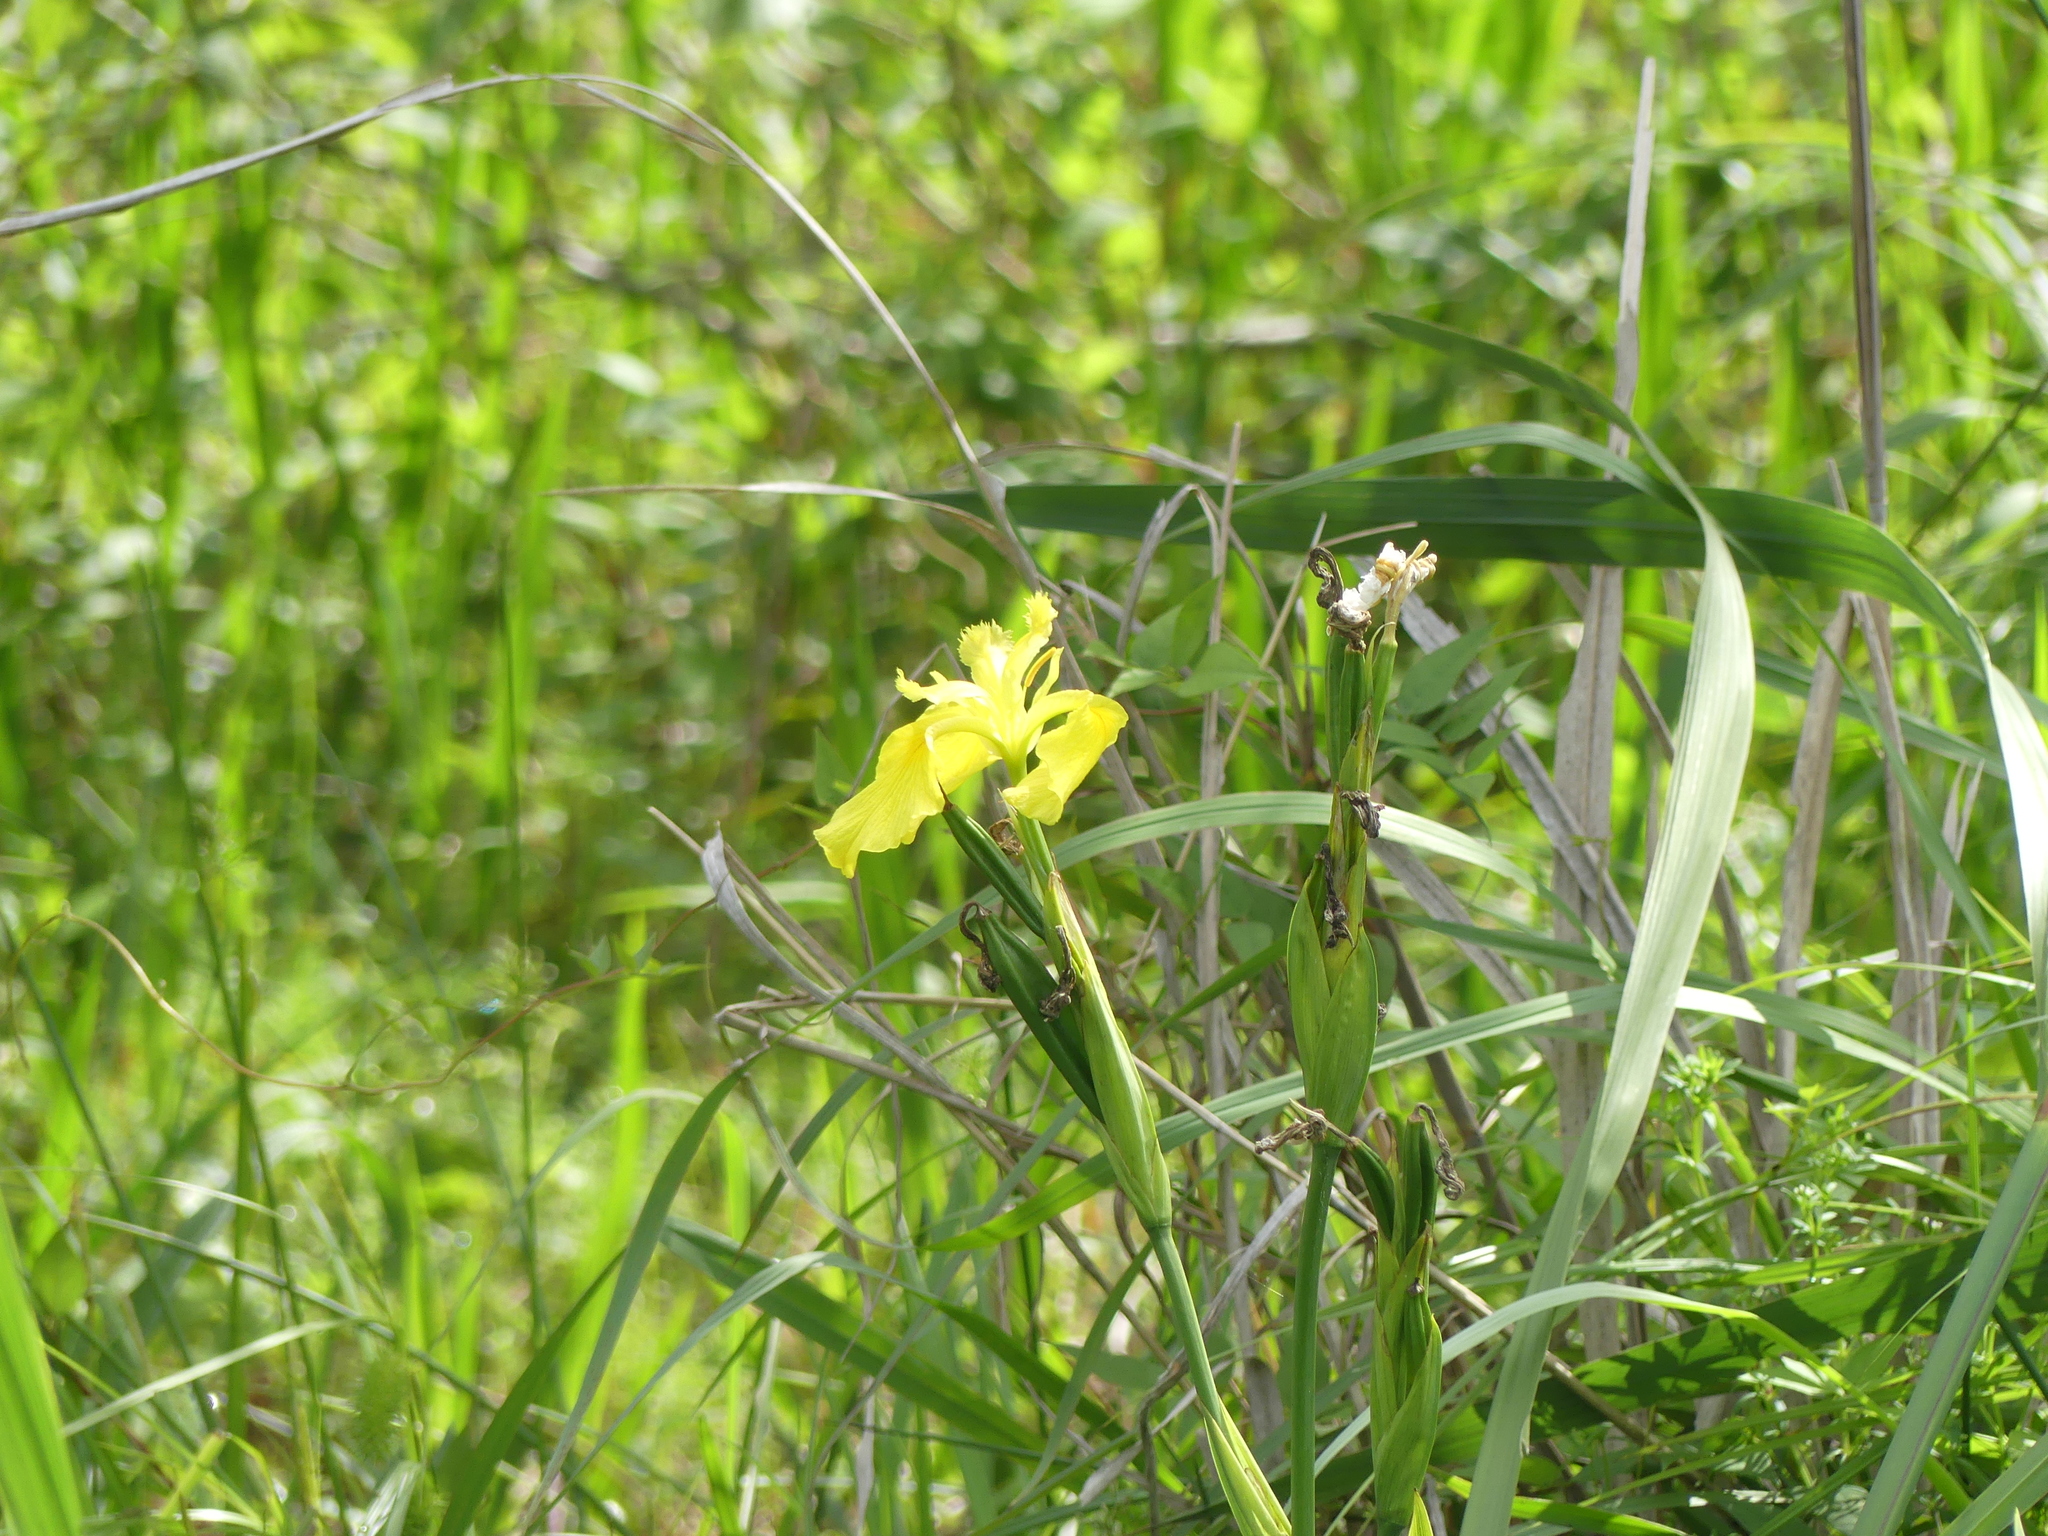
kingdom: Plantae
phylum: Tracheophyta
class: Liliopsida
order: Asparagales
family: Iridaceae
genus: Iris
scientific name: Iris pseudacorus
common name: Yellow flag
